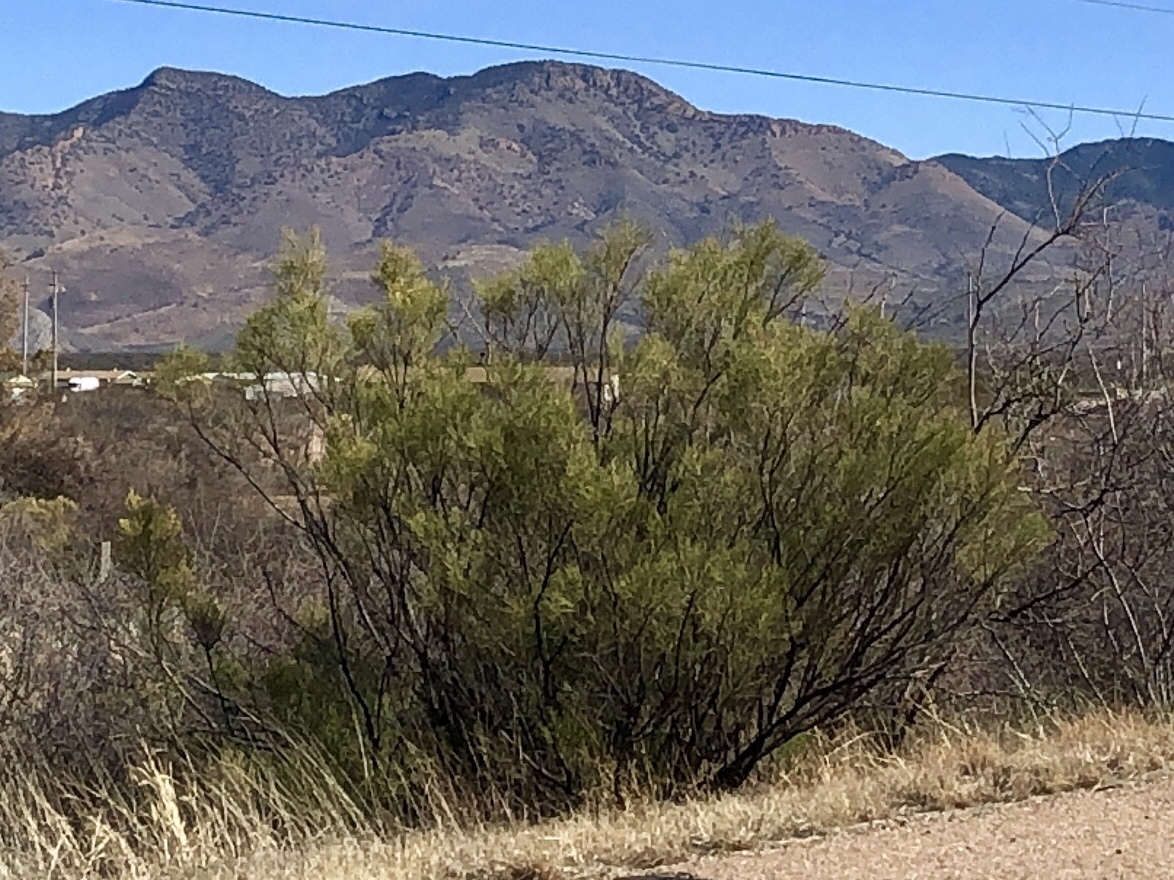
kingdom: Plantae
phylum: Tracheophyta
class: Magnoliopsida
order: Asterales
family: Asteraceae
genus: Baccharis
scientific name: Baccharis sarothroides
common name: Desert-broom
